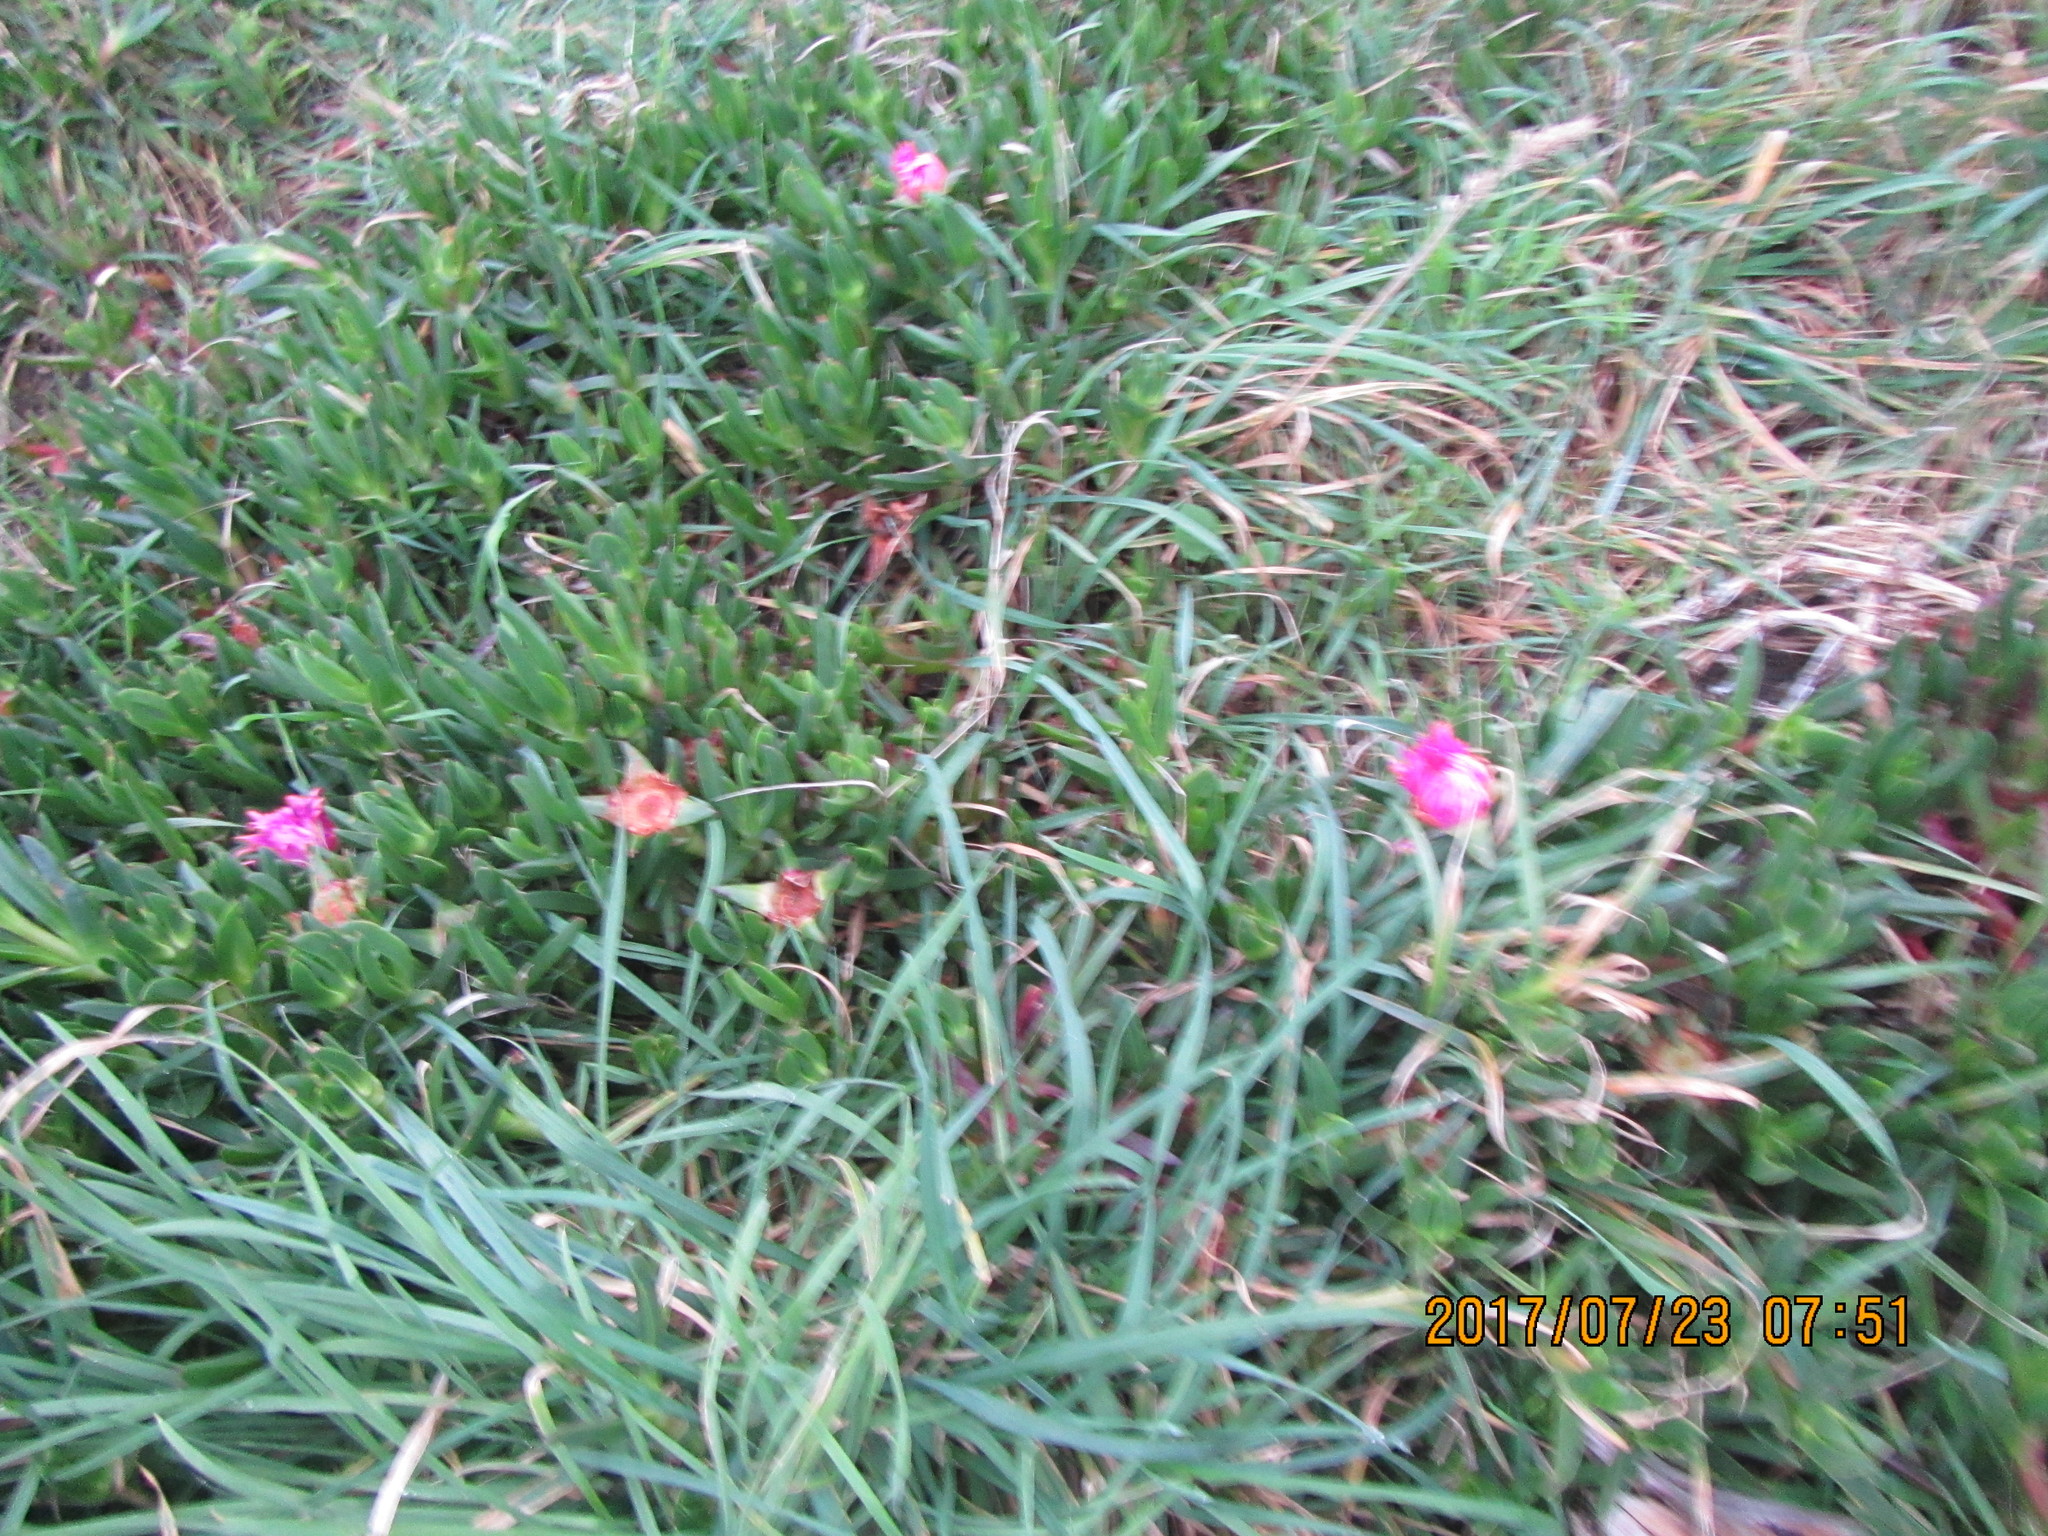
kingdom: Plantae
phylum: Tracheophyta
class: Magnoliopsida
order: Caryophyllales
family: Aizoaceae
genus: Carpobrotus
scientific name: Carpobrotus chilensis
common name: Sea fig
